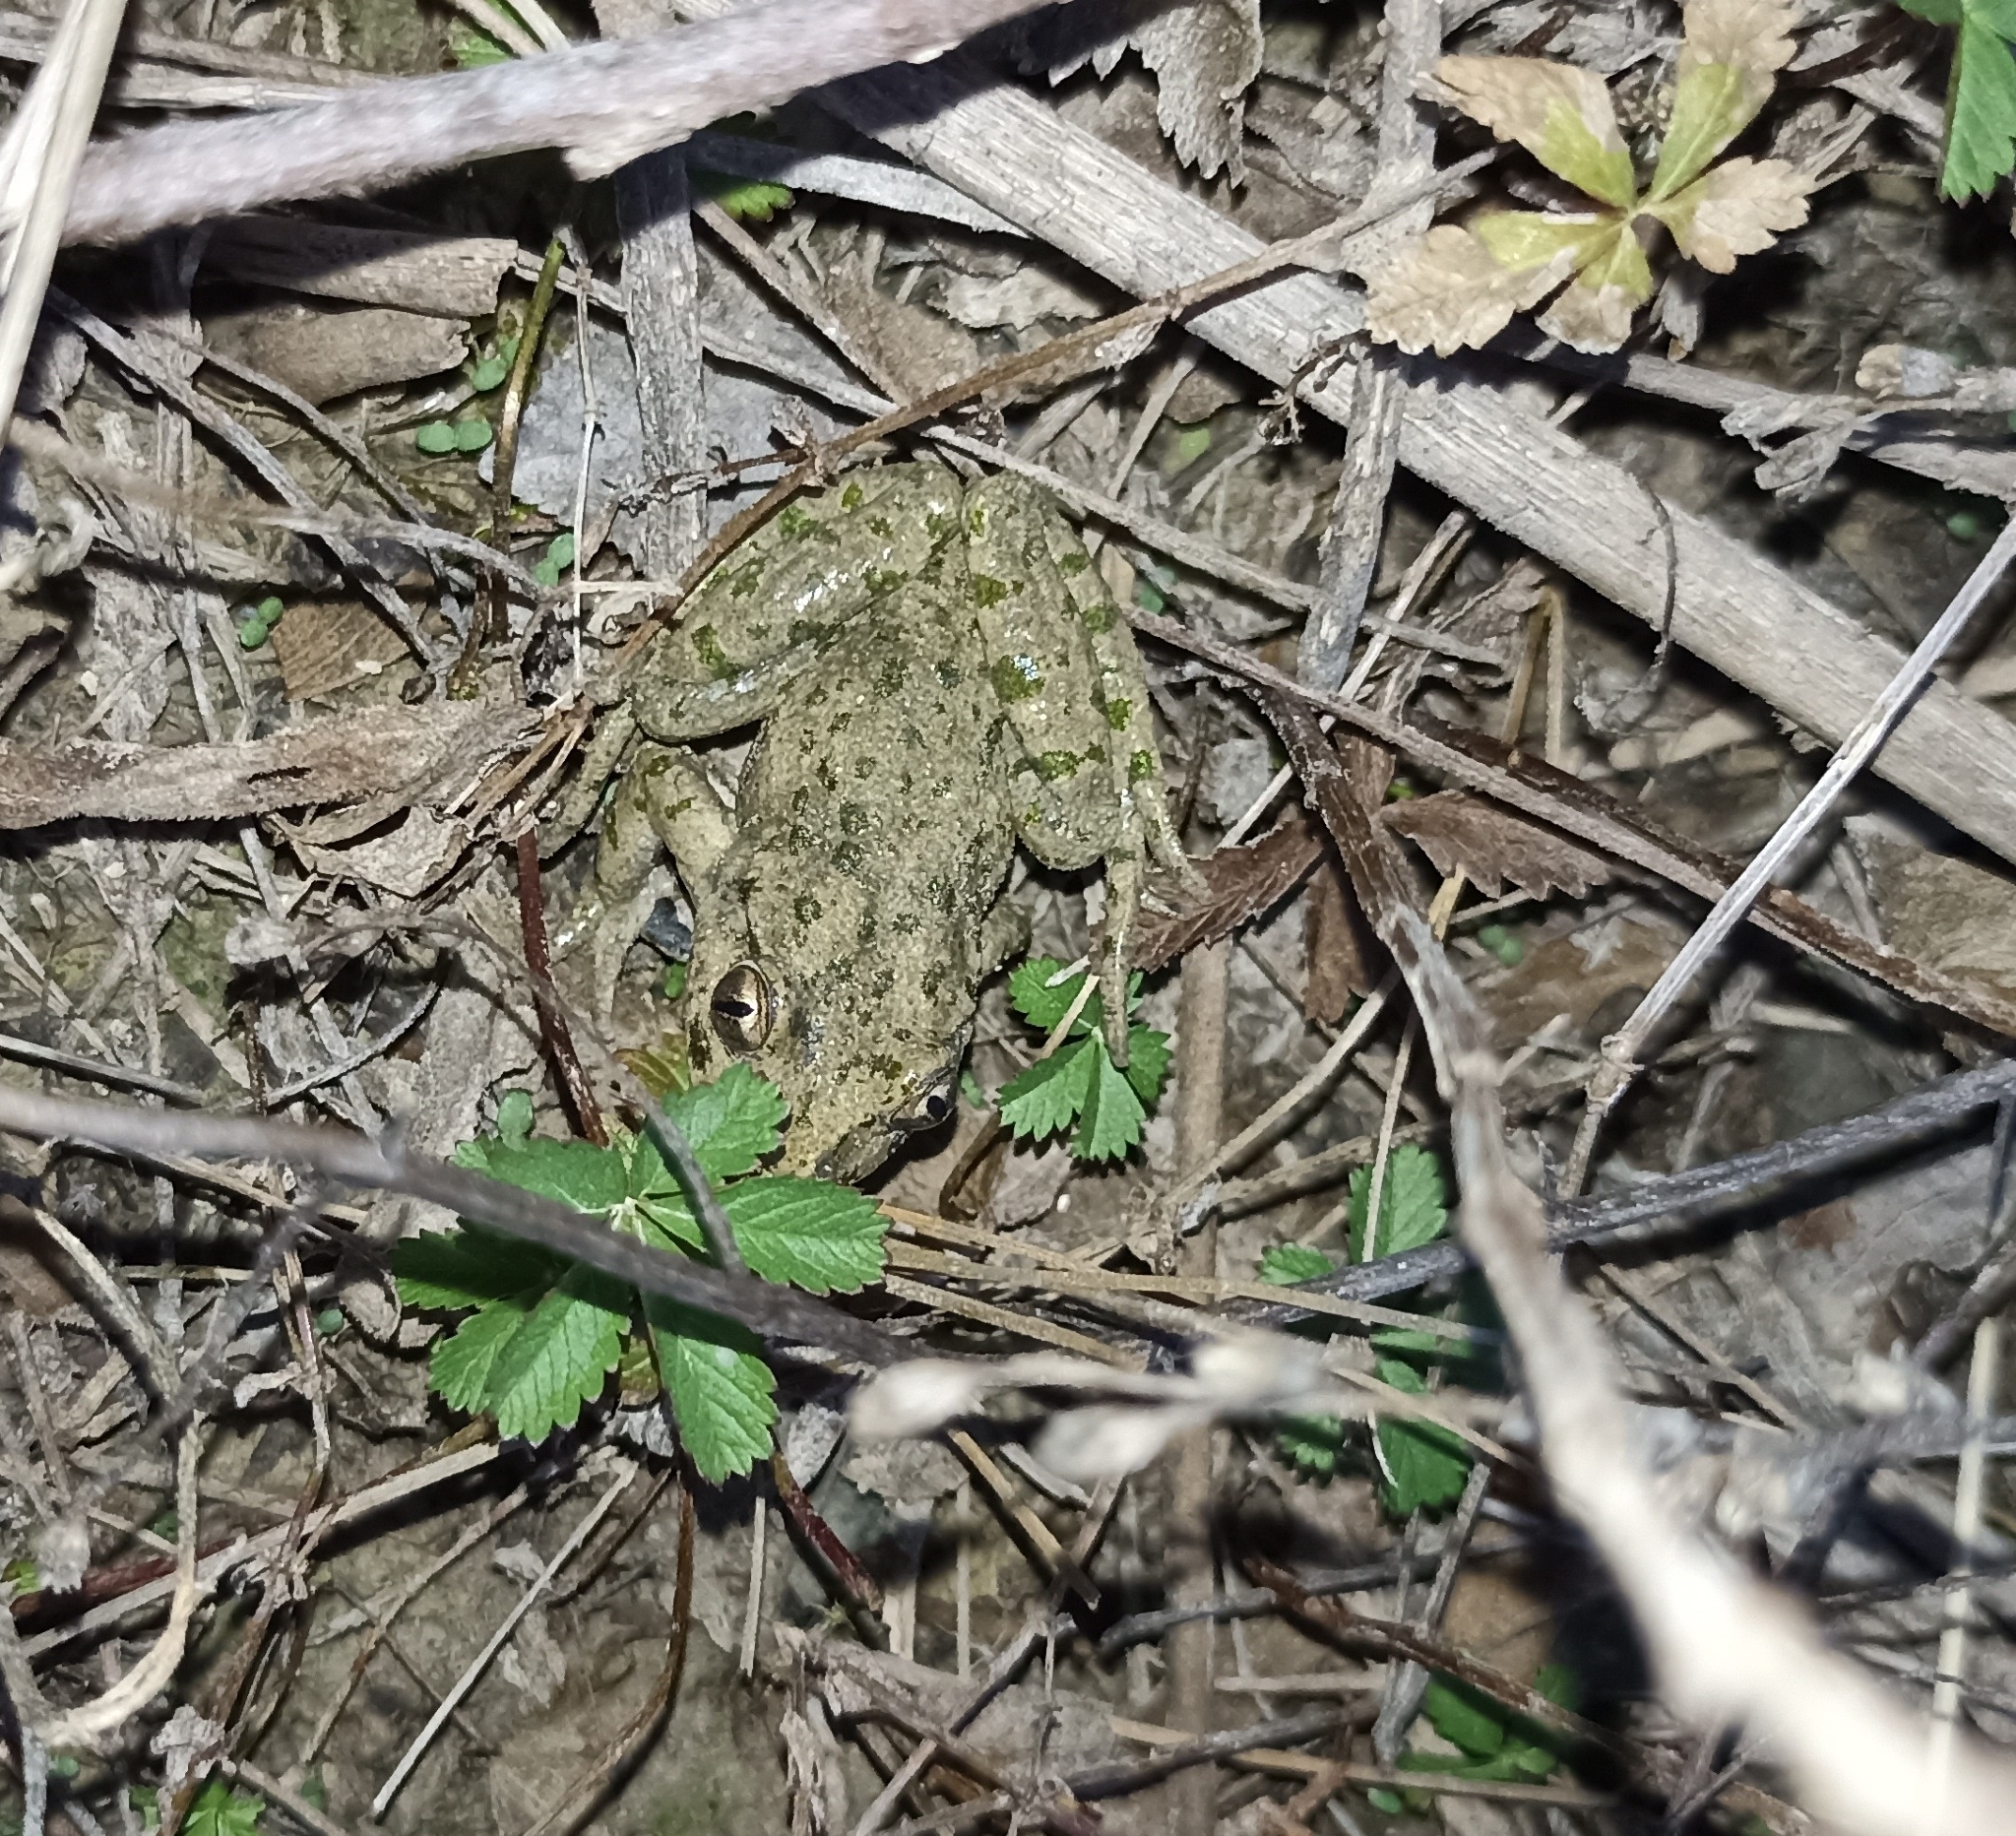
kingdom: Animalia
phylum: Chordata
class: Amphibia
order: Anura
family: Pelodytidae
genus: Pelodytes
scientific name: Pelodytes punctatus
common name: Parsley frog
